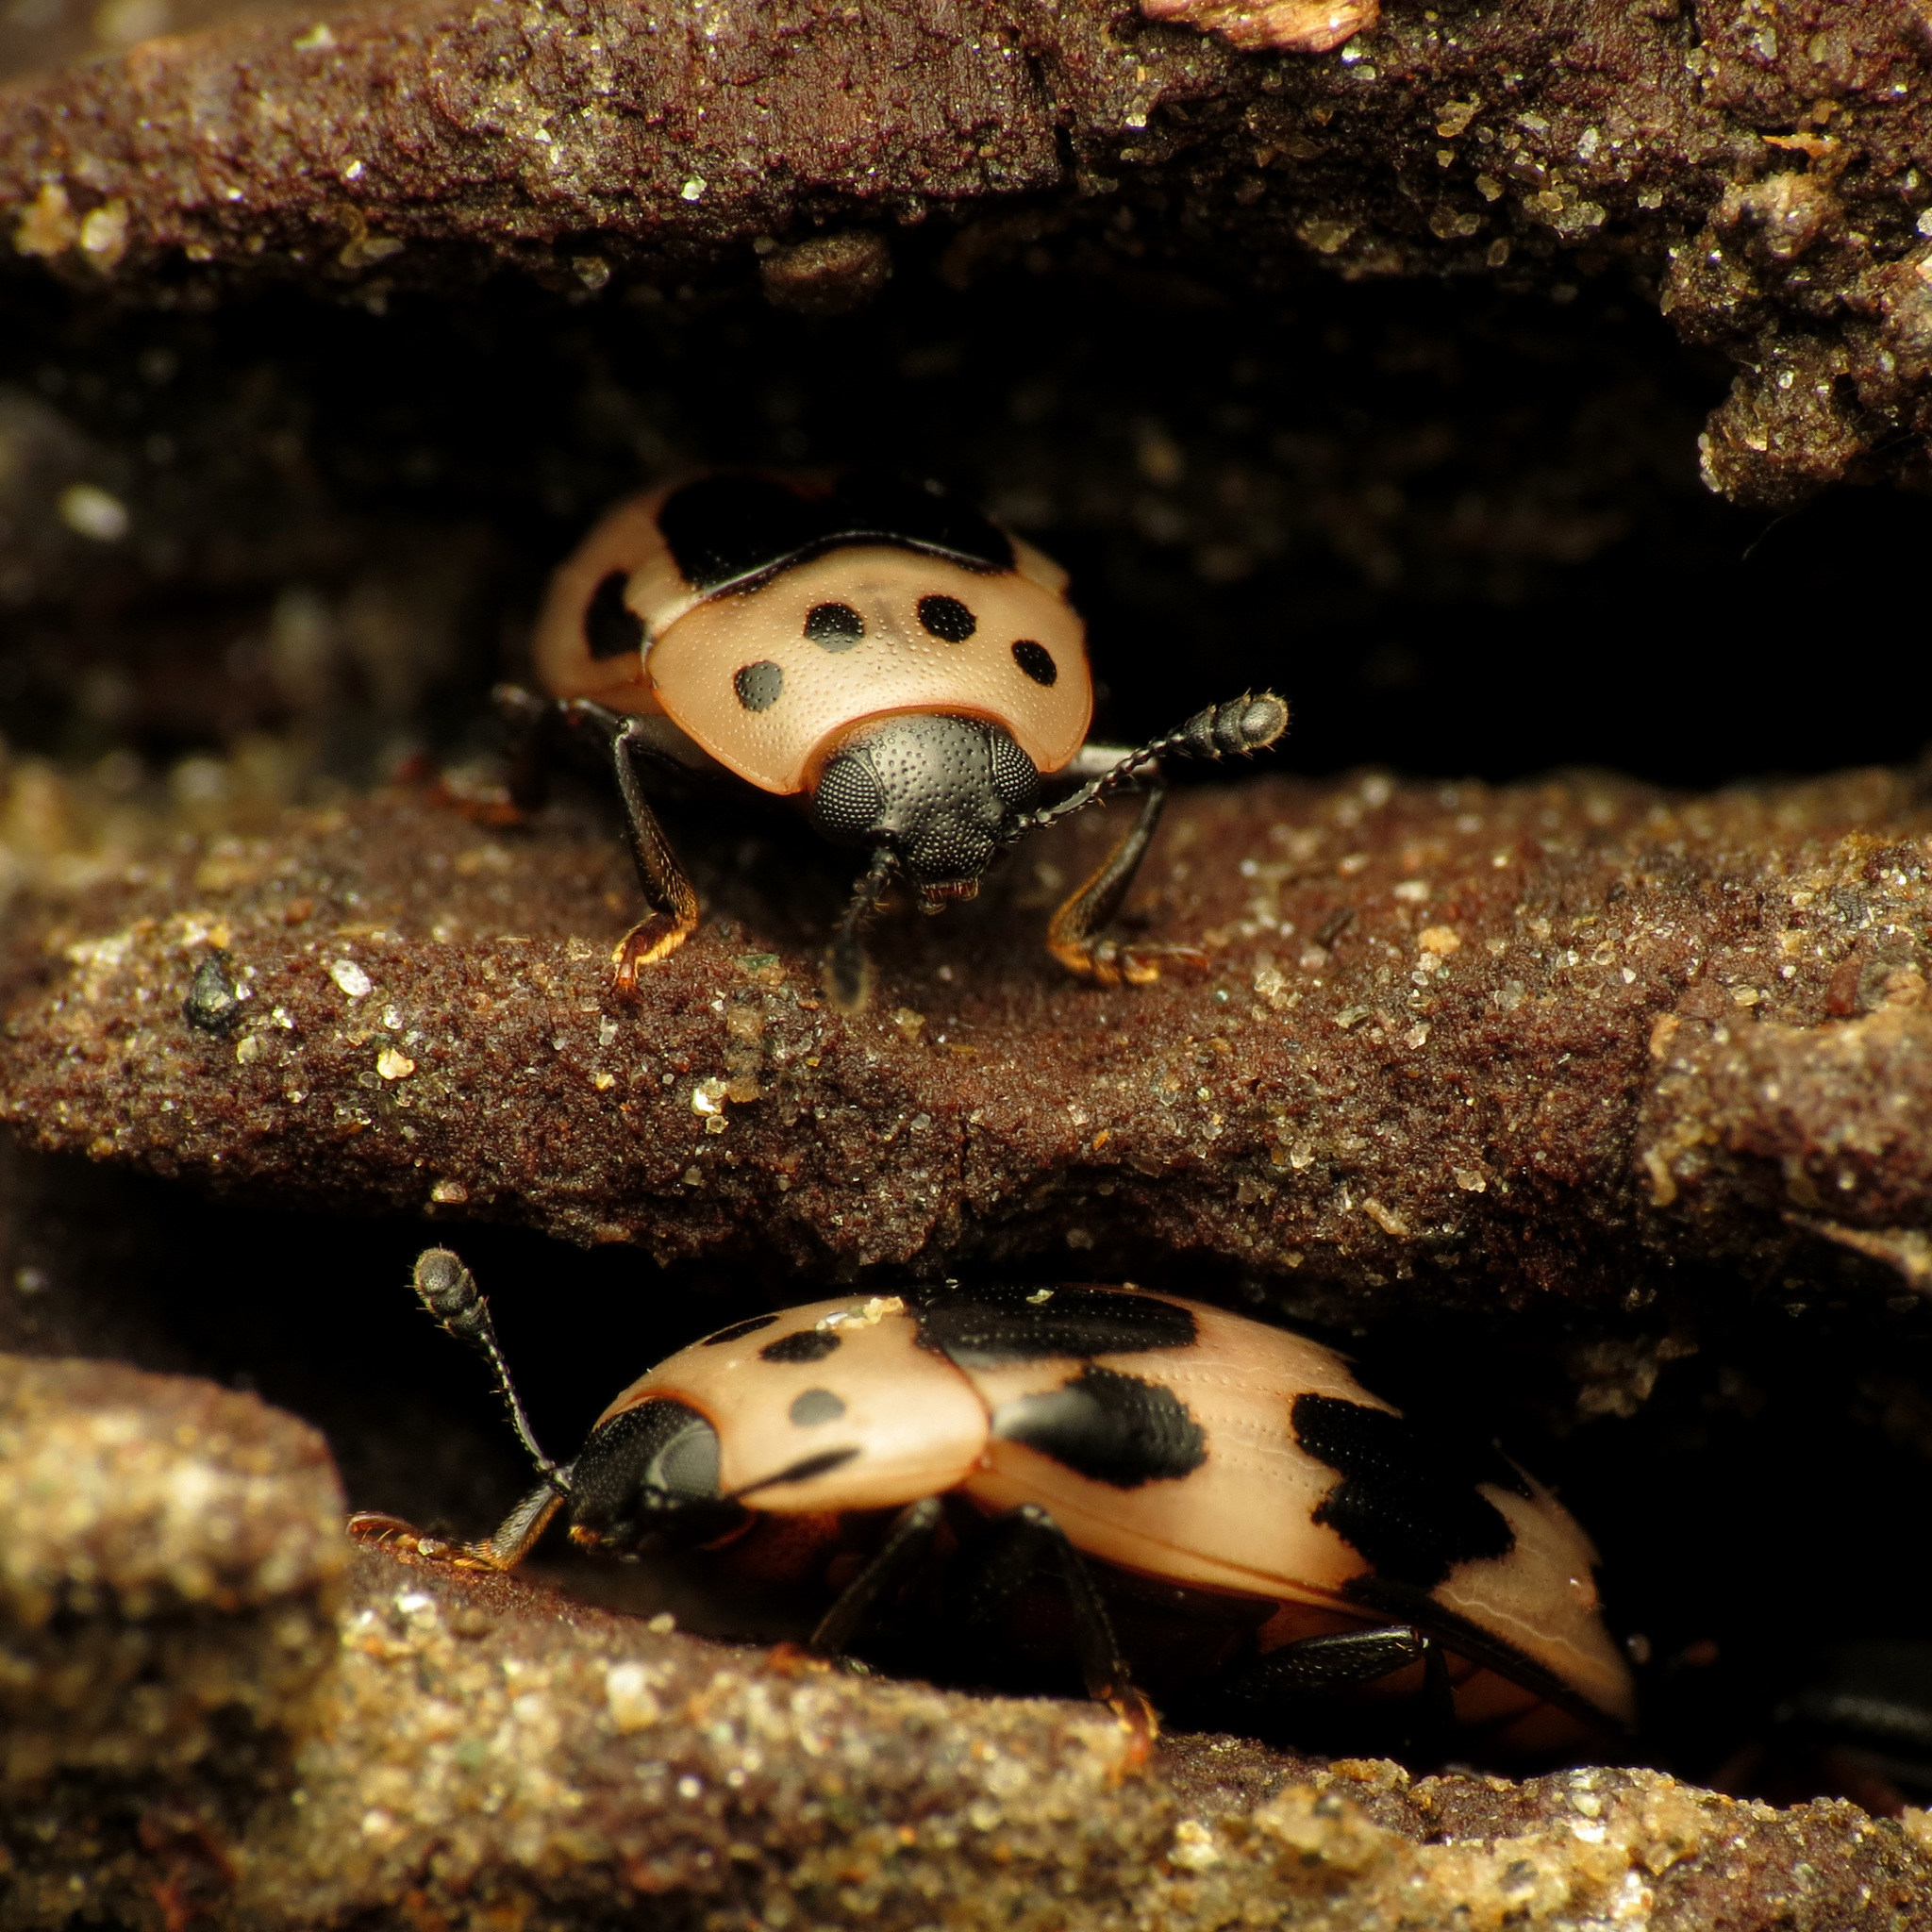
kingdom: Animalia
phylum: Arthropoda
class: Insecta
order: Coleoptera
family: Erotylidae
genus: Ischyrus
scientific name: Ischyrus quadripunctatus
